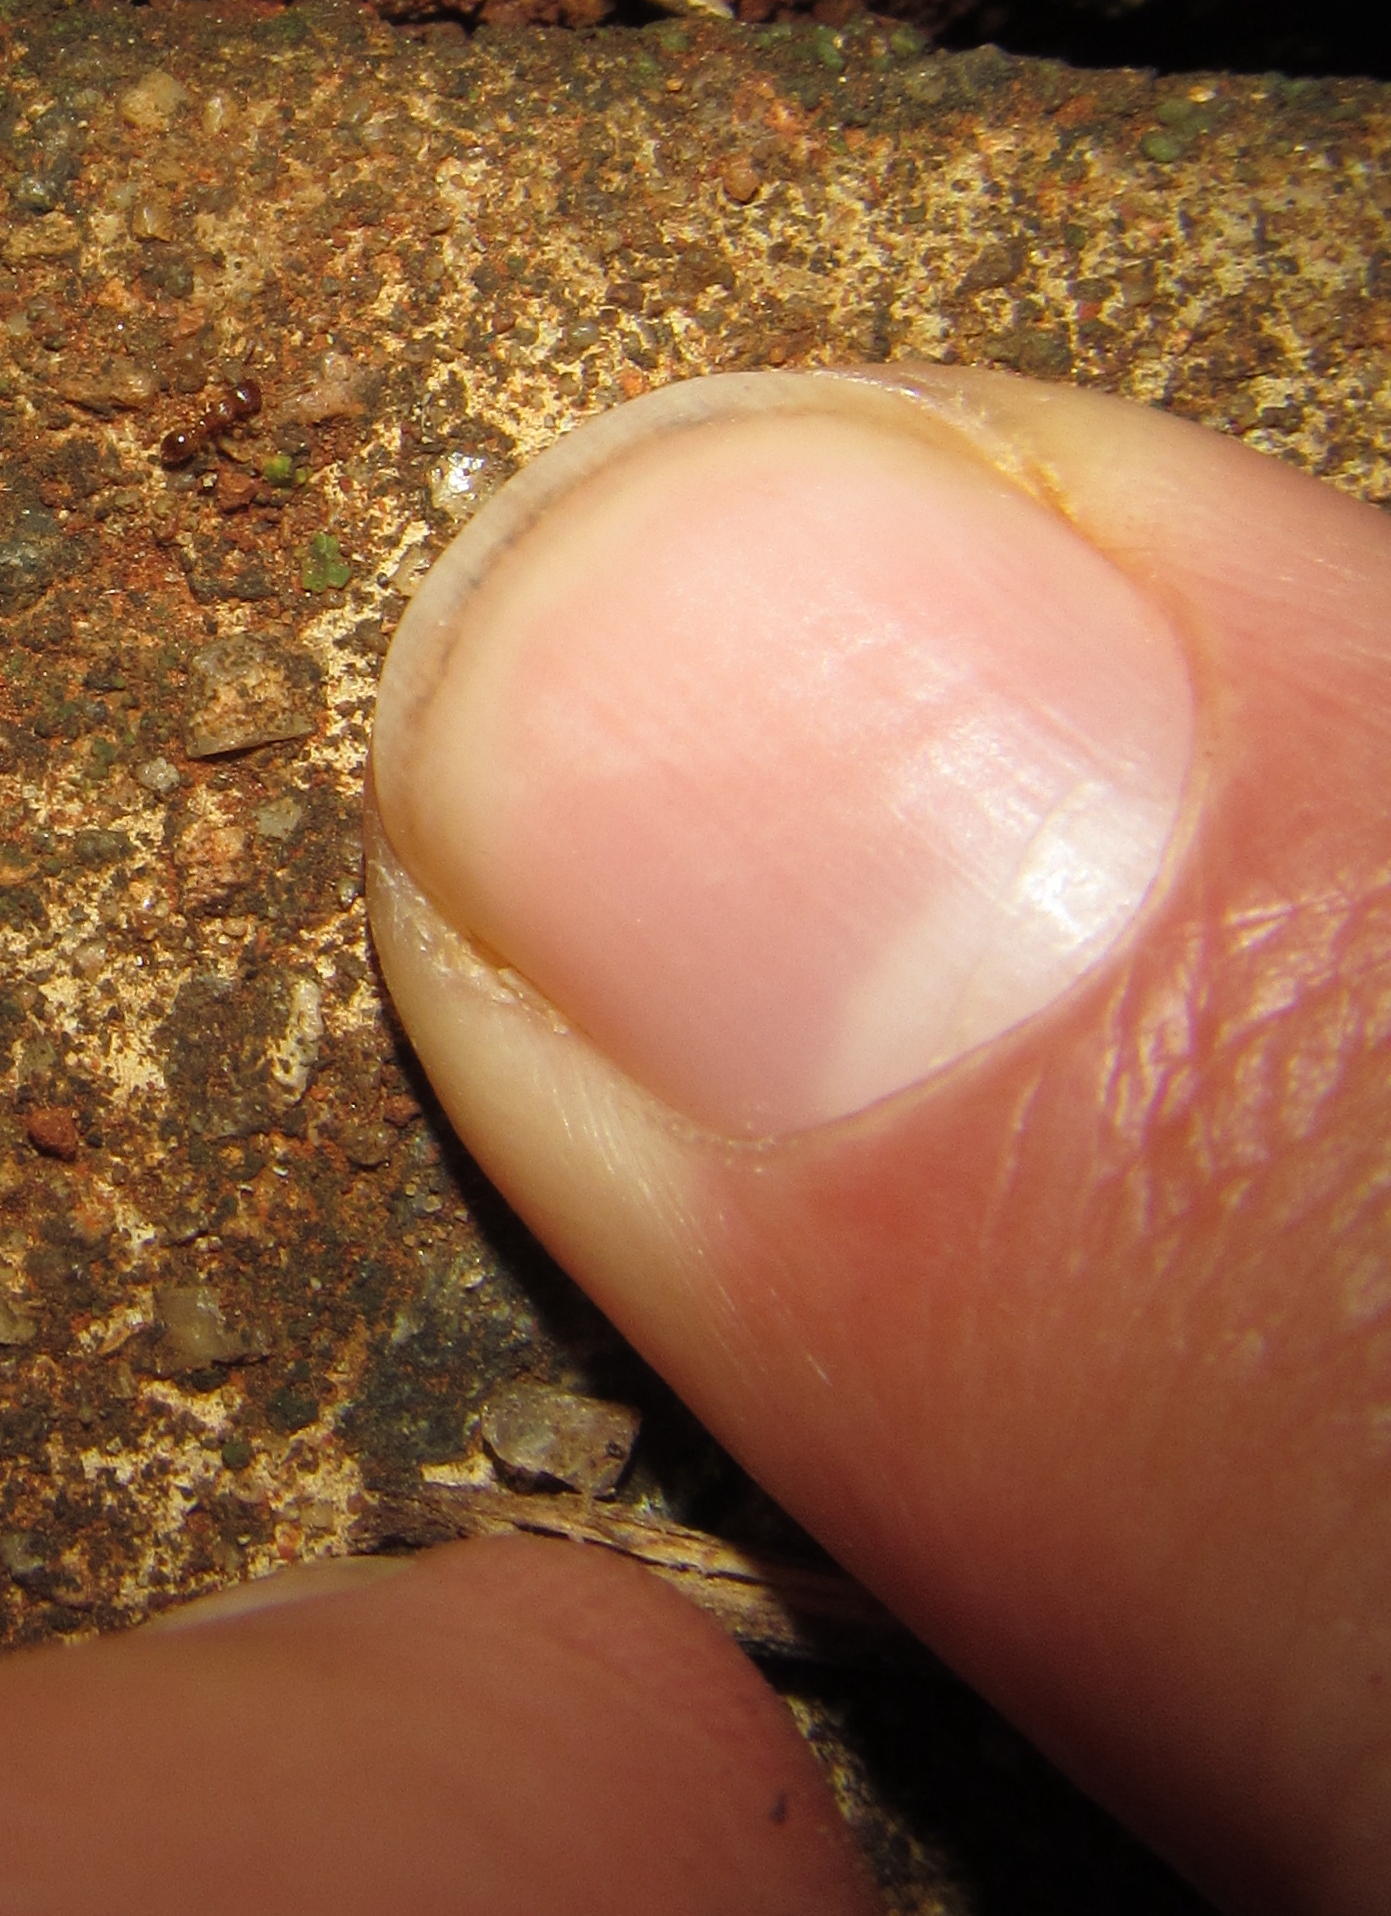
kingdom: Animalia
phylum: Arthropoda
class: Insecta
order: Hymenoptera
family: Formicidae
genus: Tetramorium
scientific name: Tetramorium simillimum
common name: Ant
